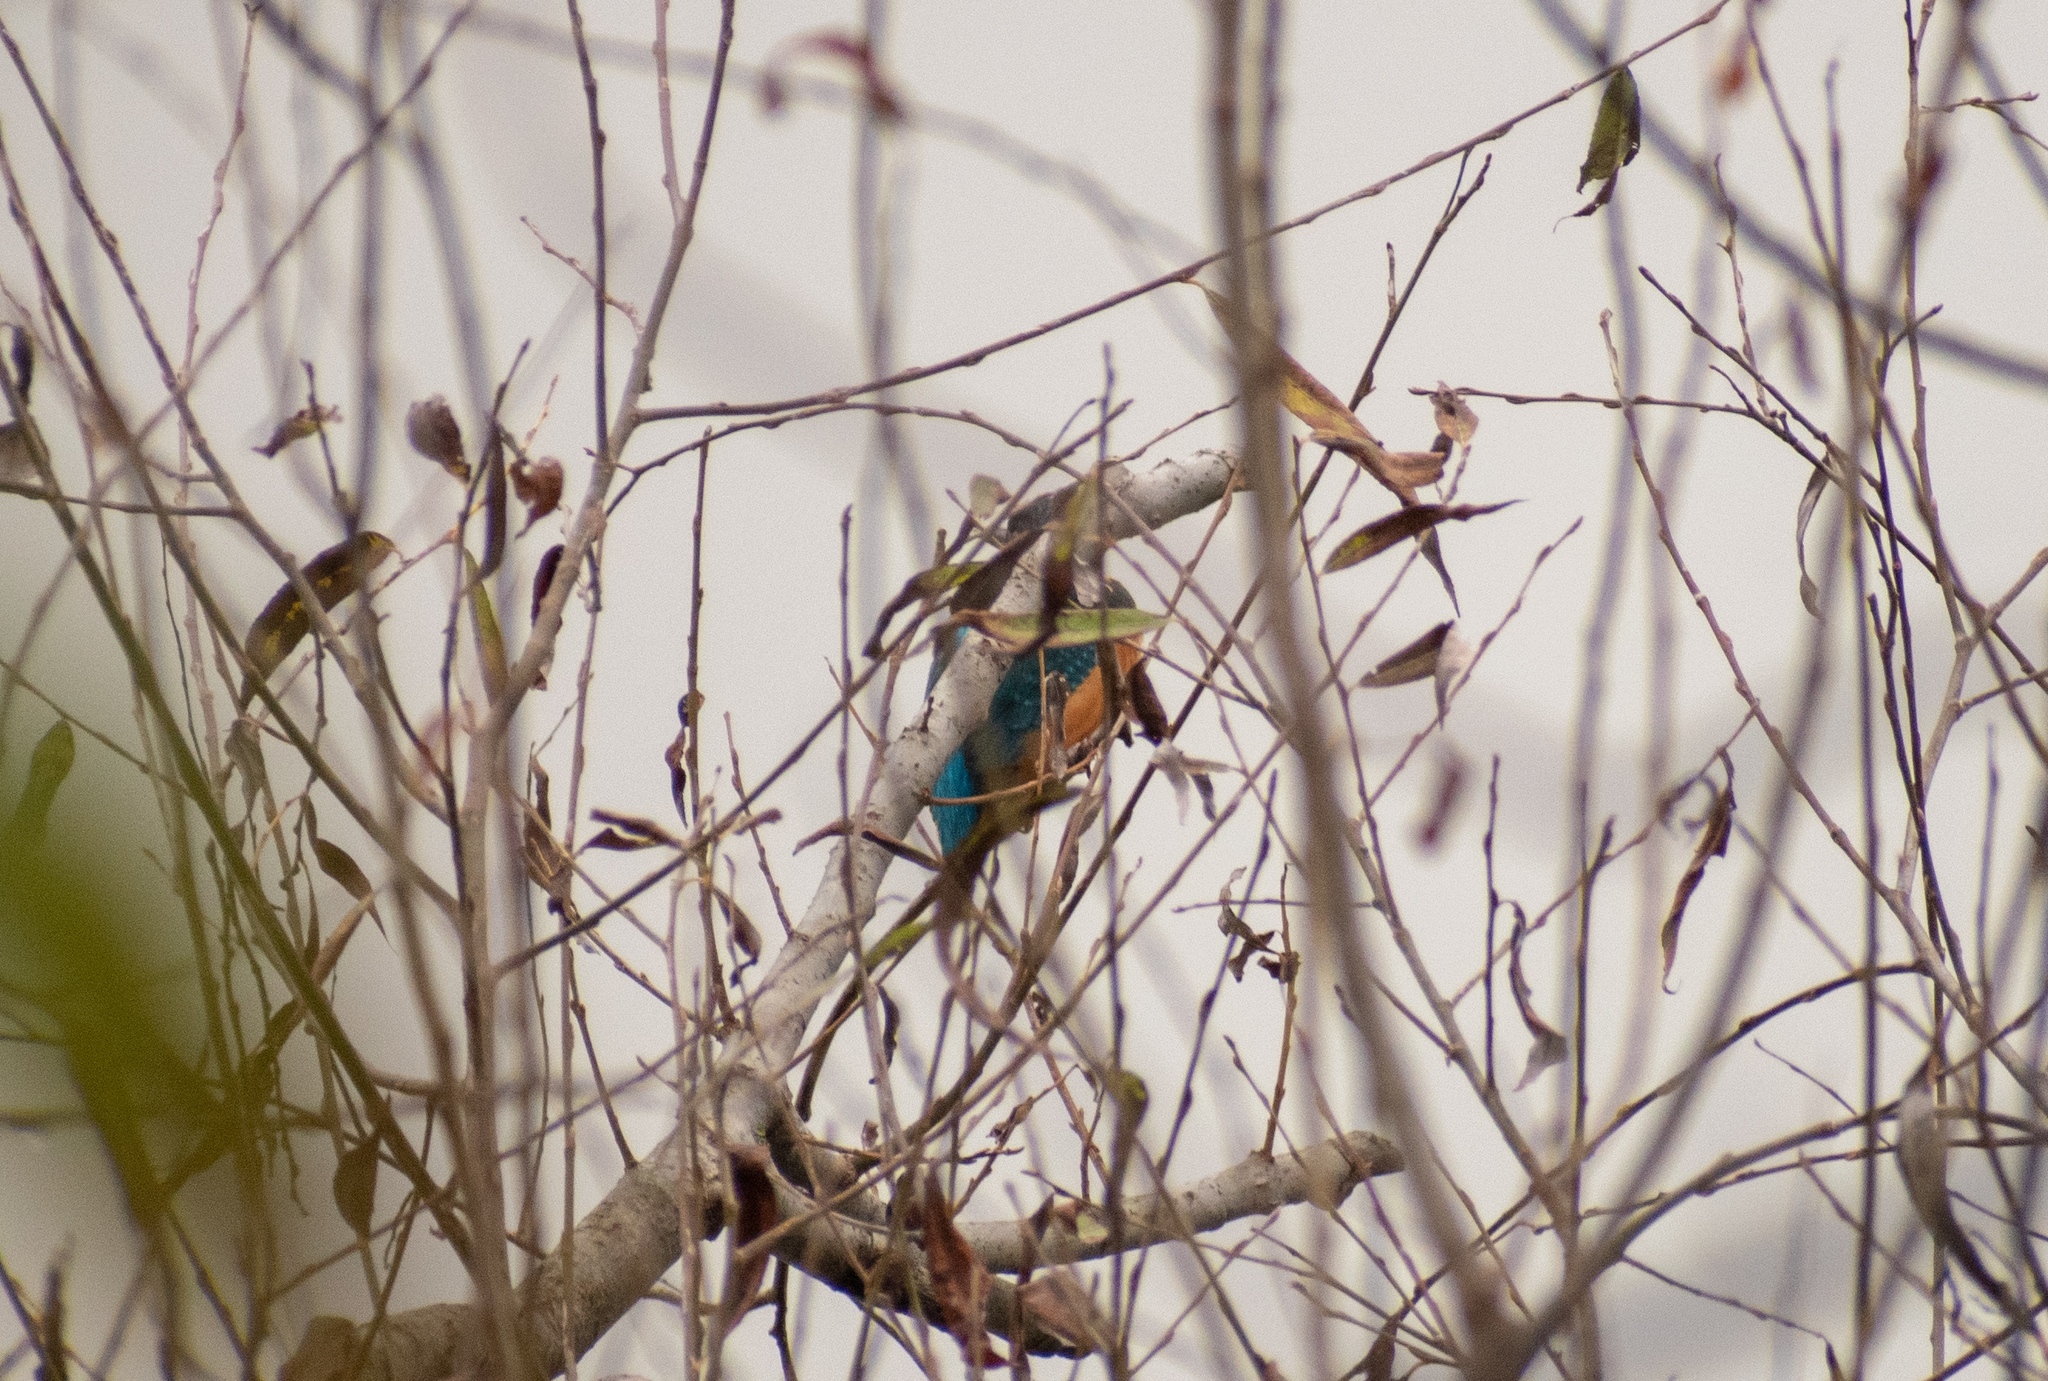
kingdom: Animalia
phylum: Chordata
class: Aves
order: Coraciiformes
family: Alcedinidae
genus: Alcedo
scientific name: Alcedo atthis
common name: Common kingfisher
